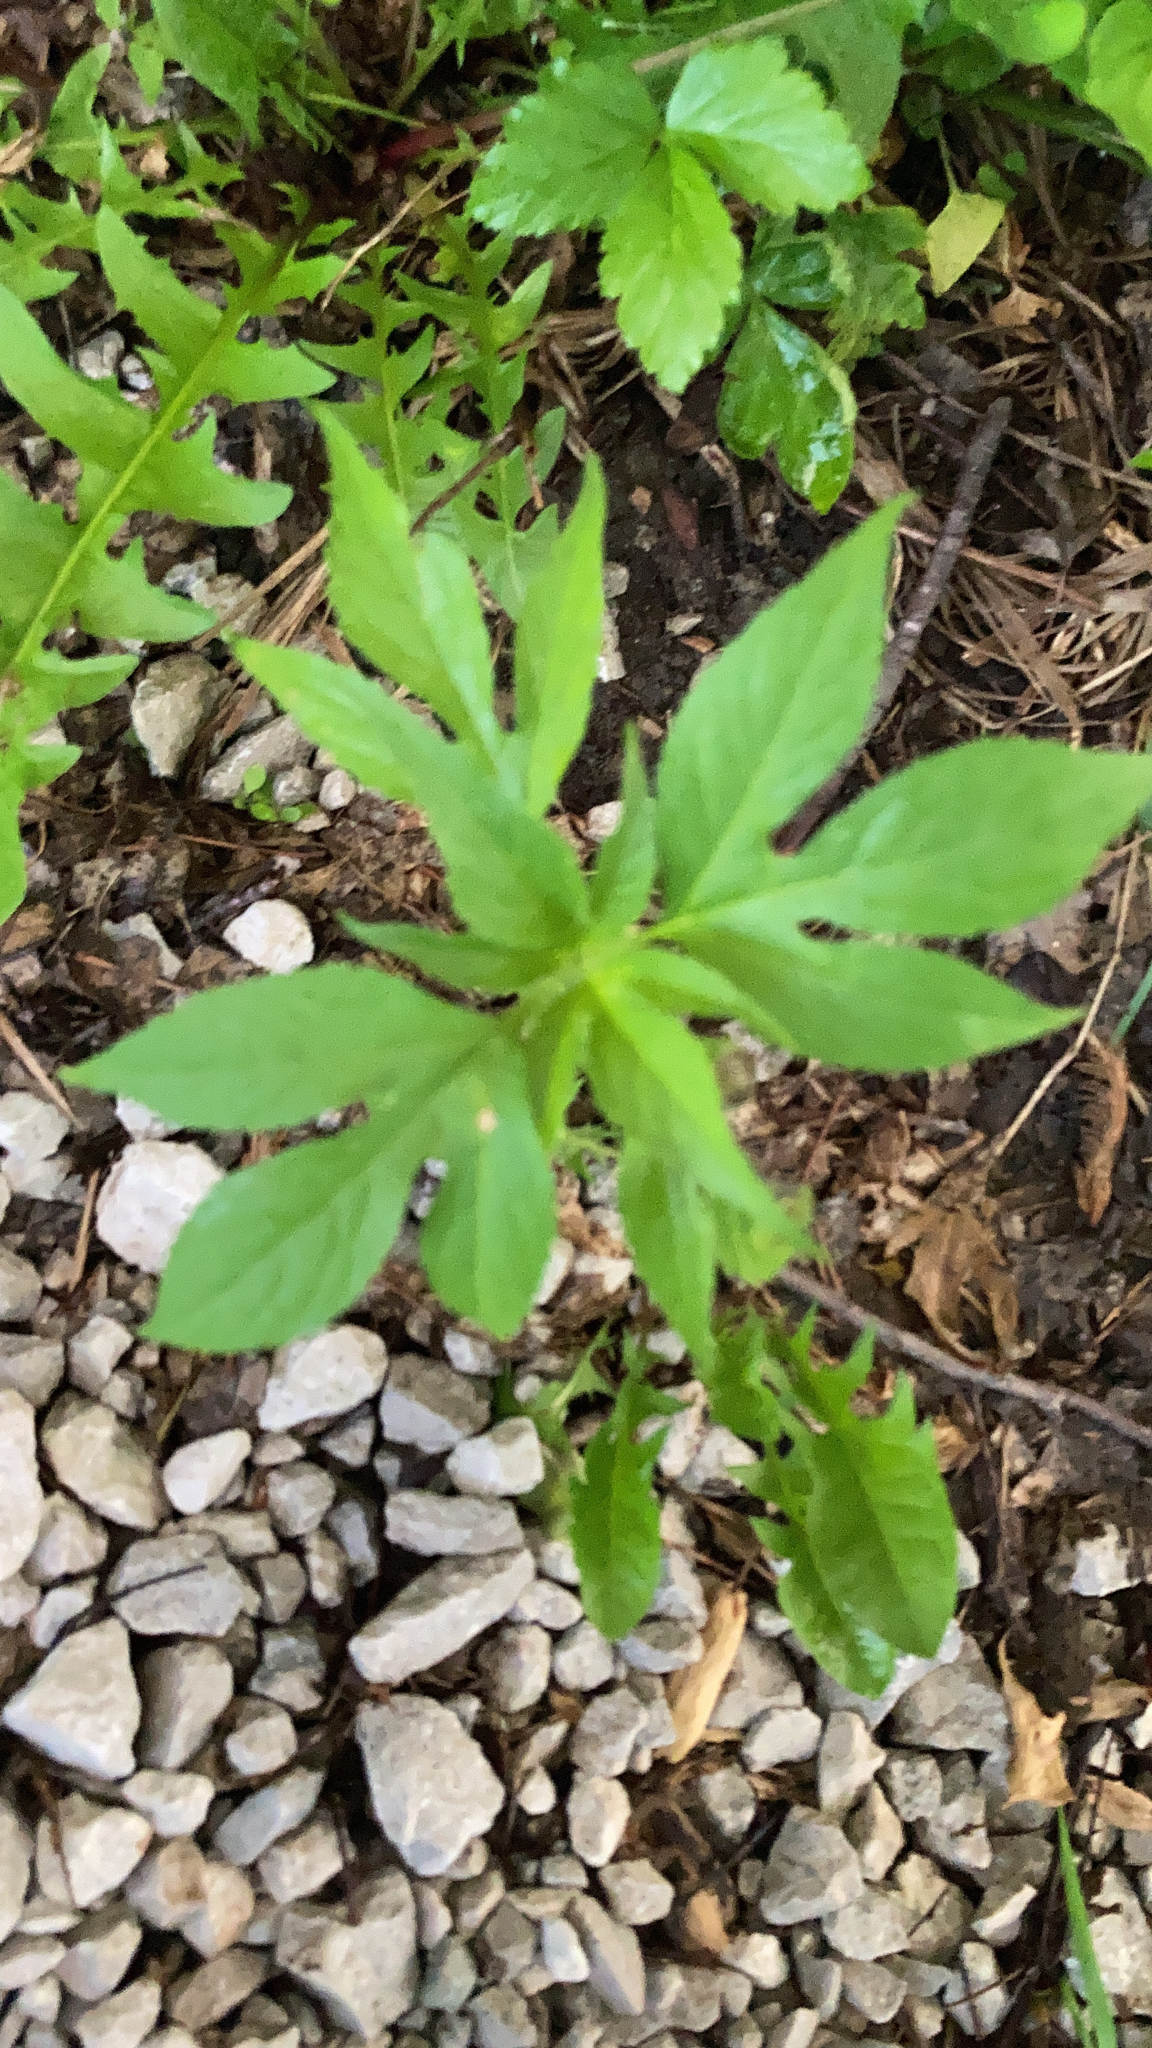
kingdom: Plantae
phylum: Tracheophyta
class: Magnoliopsida
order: Asterales
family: Asteraceae
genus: Ambrosia
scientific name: Ambrosia trifida
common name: Giant ragweed
